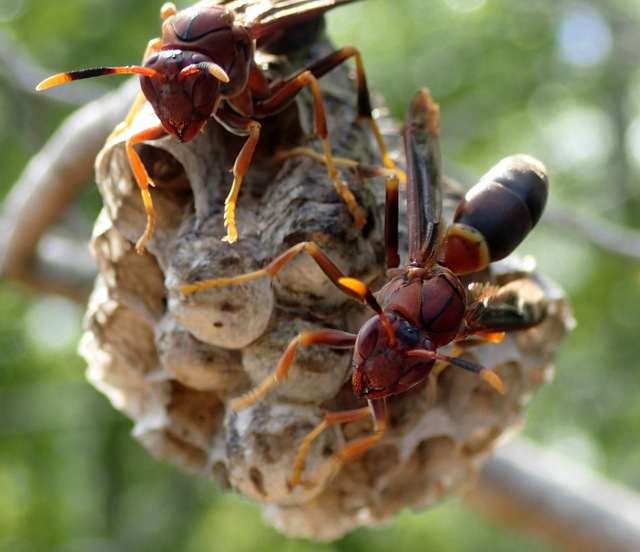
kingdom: Animalia
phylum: Arthropoda
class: Insecta
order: Hymenoptera
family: Eumenidae
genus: Polistes
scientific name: Polistes annularis
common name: Ringed paper wasp
